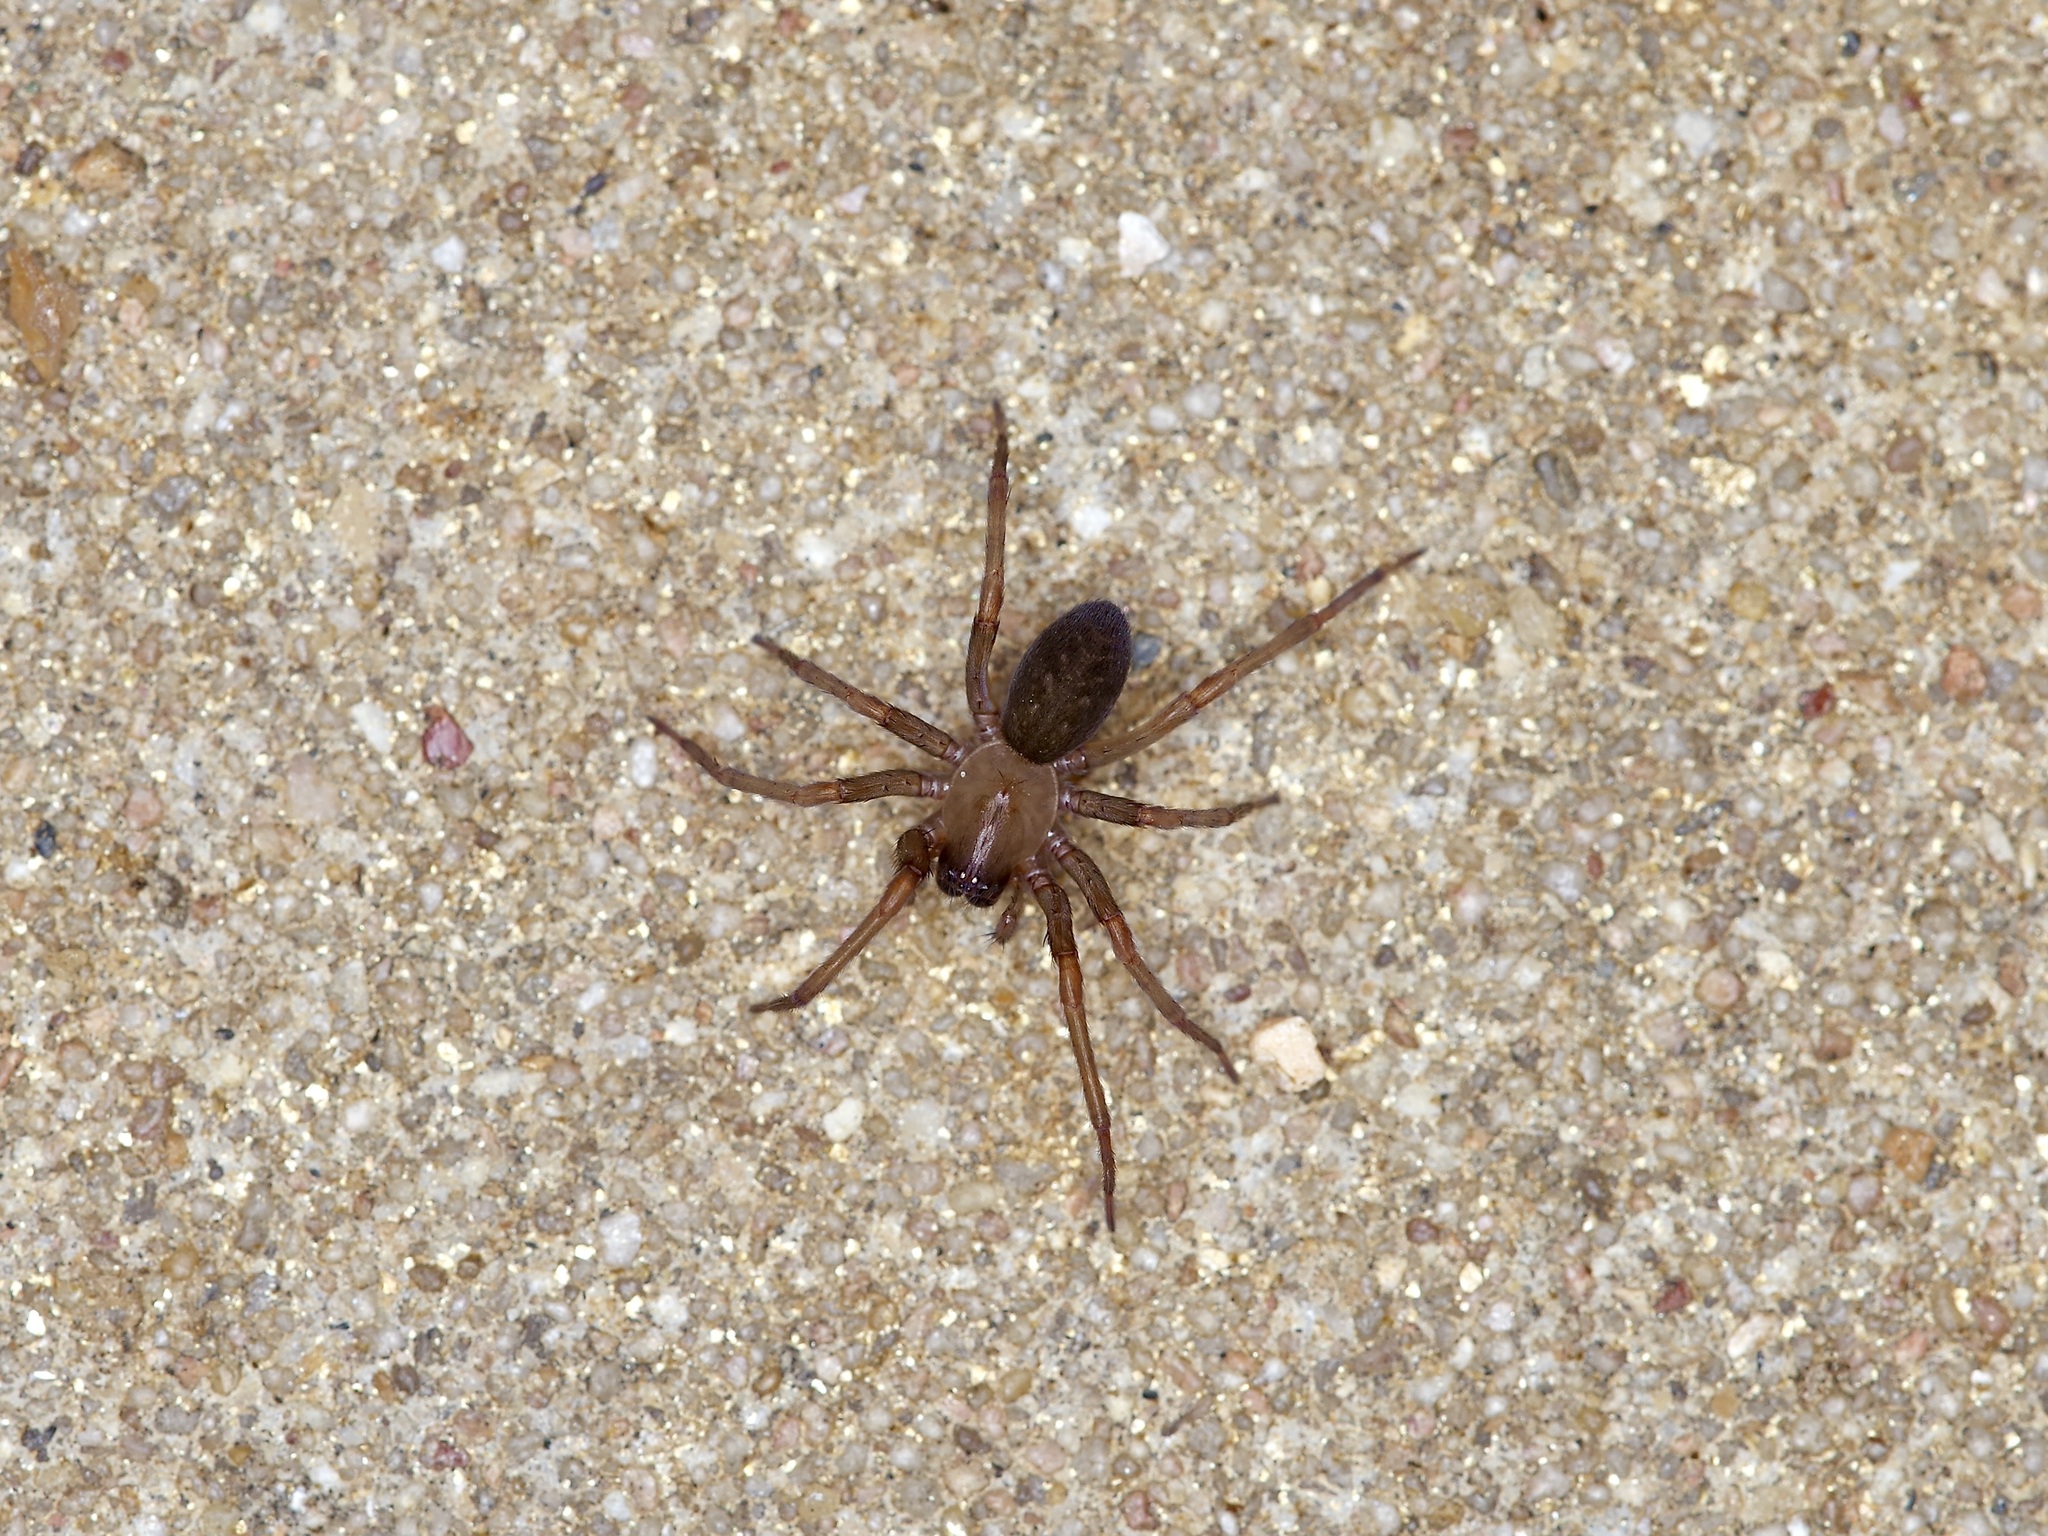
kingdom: Animalia
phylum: Arthropoda
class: Arachnida
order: Araneae
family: Desidae
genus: Metaltella
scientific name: Metaltella simoni
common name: Cribellate spider
